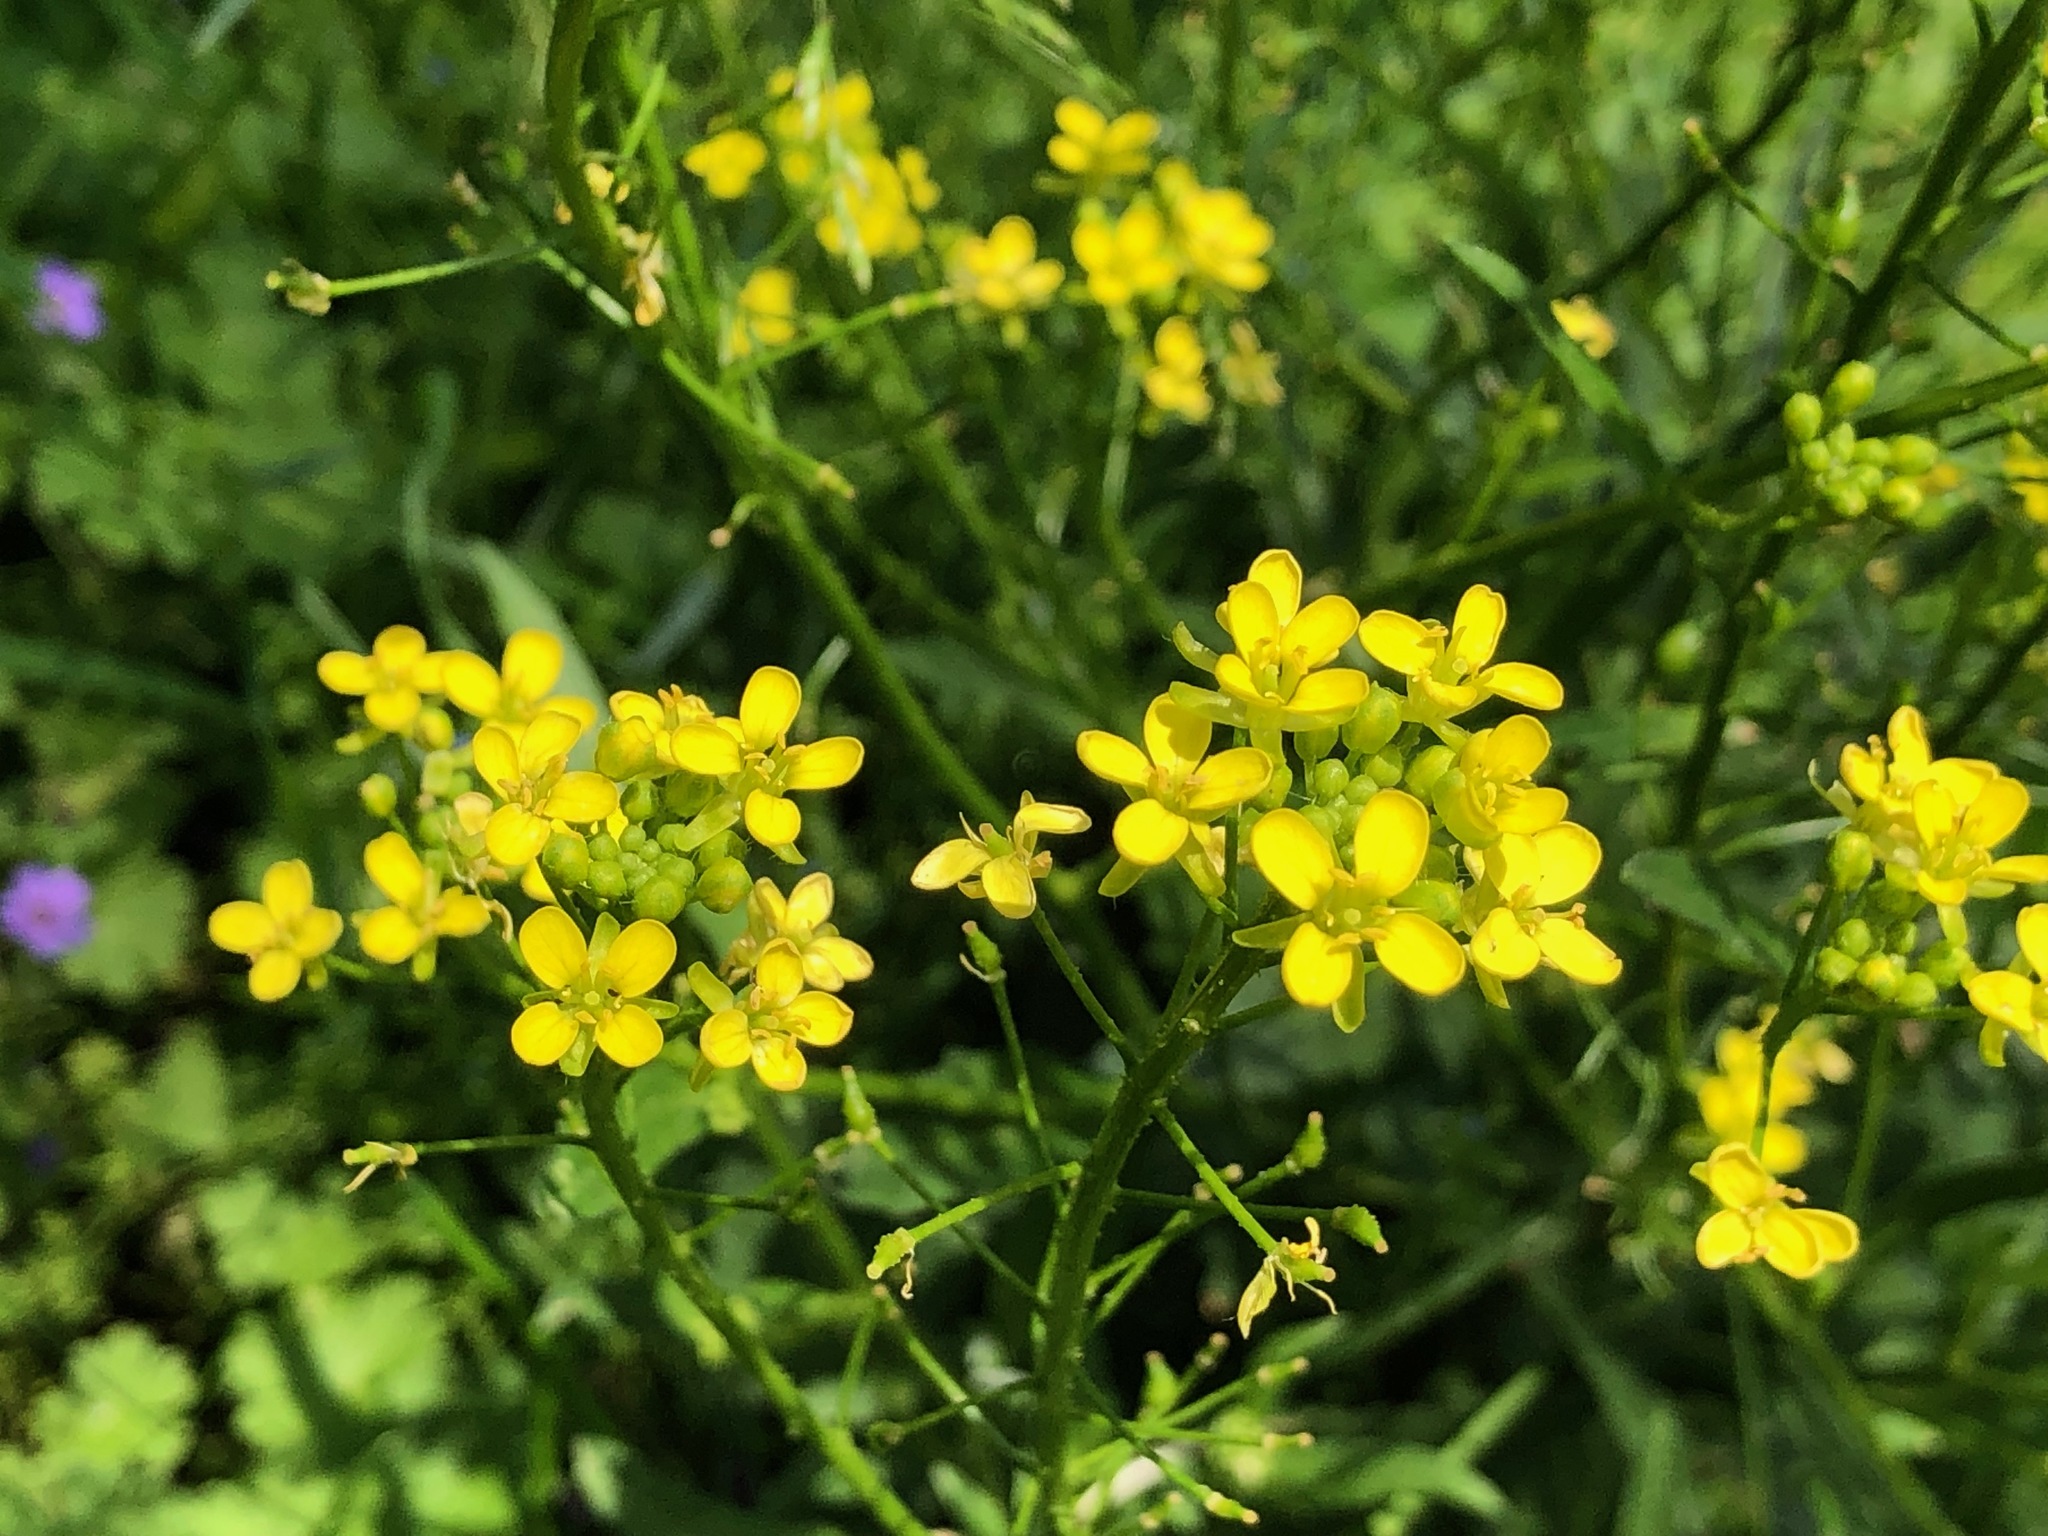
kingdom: Plantae
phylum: Tracheophyta
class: Magnoliopsida
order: Brassicales
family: Brassicaceae
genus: Bunias
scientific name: Bunias orientalis
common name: Warty-cabbage
